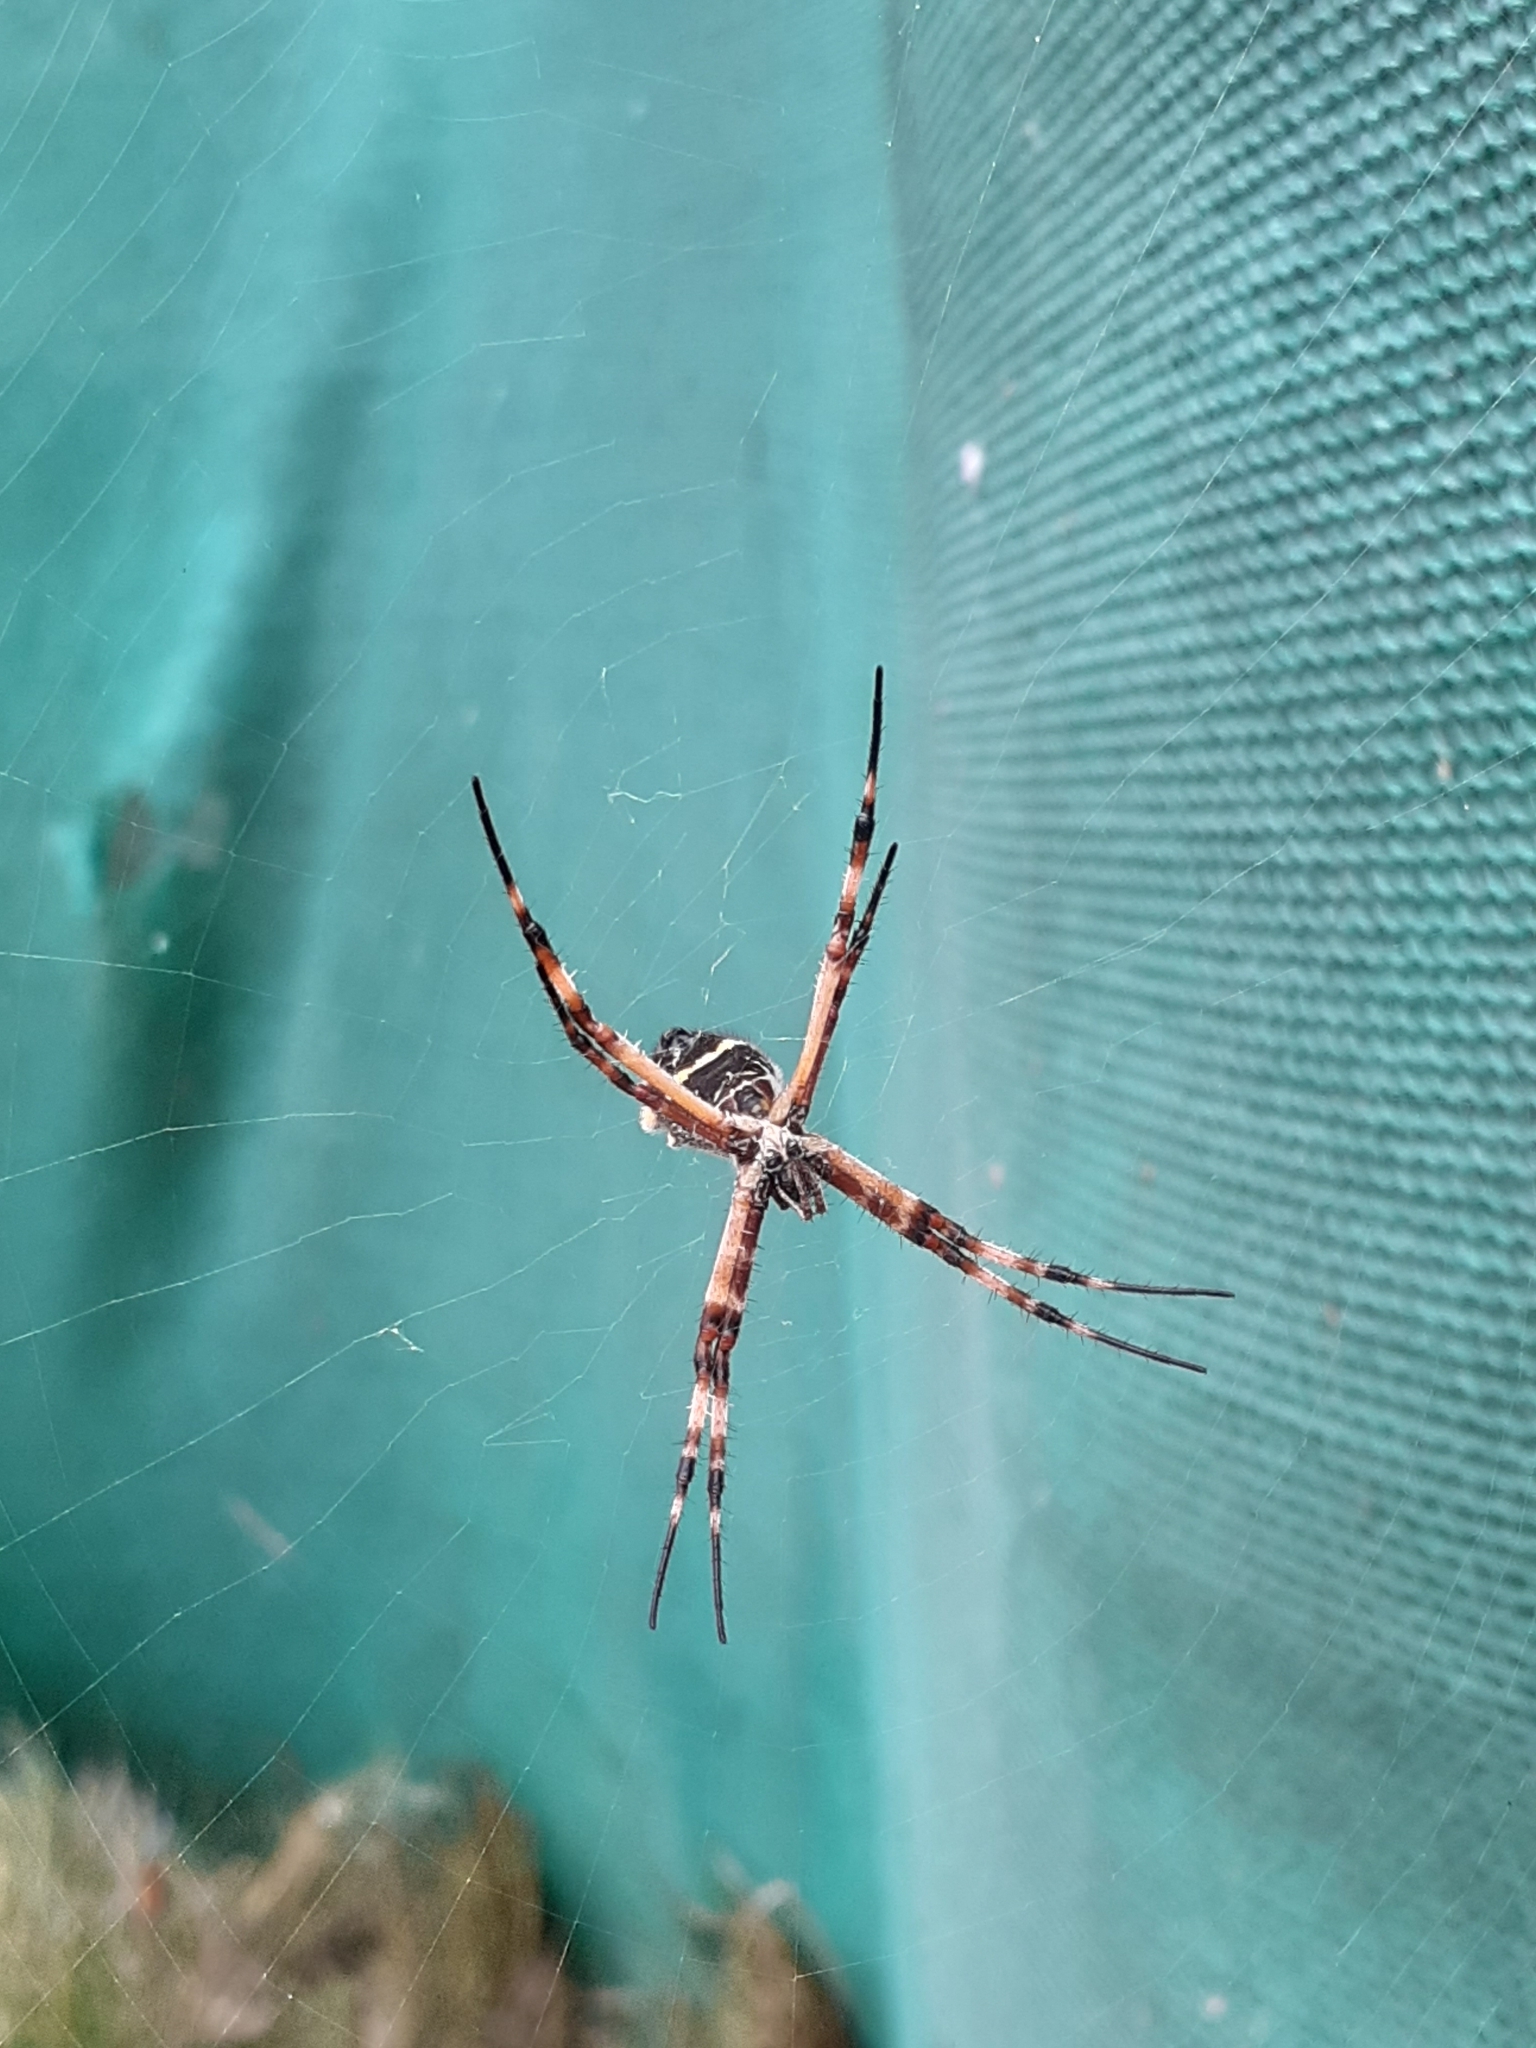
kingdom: Animalia
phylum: Arthropoda
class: Arachnida
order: Araneae
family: Araneidae
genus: Argiope
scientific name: Argiope argentata
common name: Orb weavers
